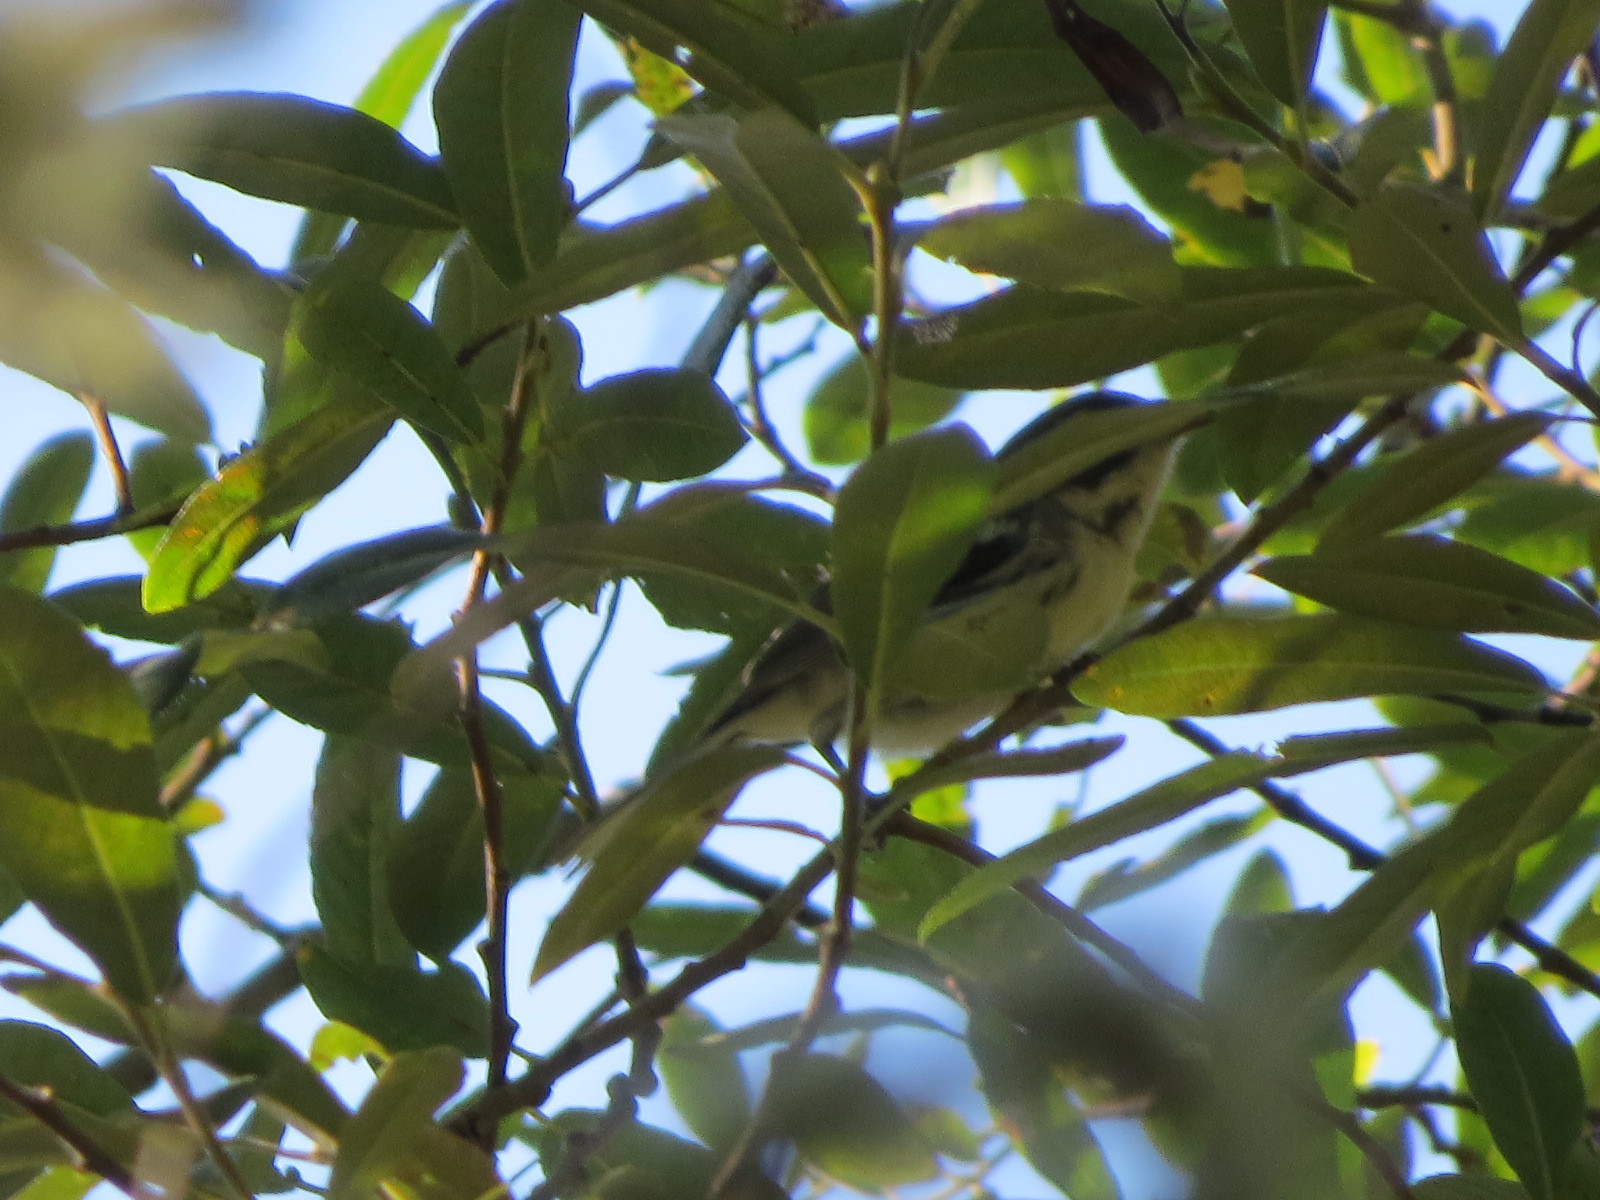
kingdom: Animalia
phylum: Chordata
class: Aves
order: Passeriformes
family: Parulidae
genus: Setophaga
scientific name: Setophaga nigrescens
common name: Black-throated gray warbler
